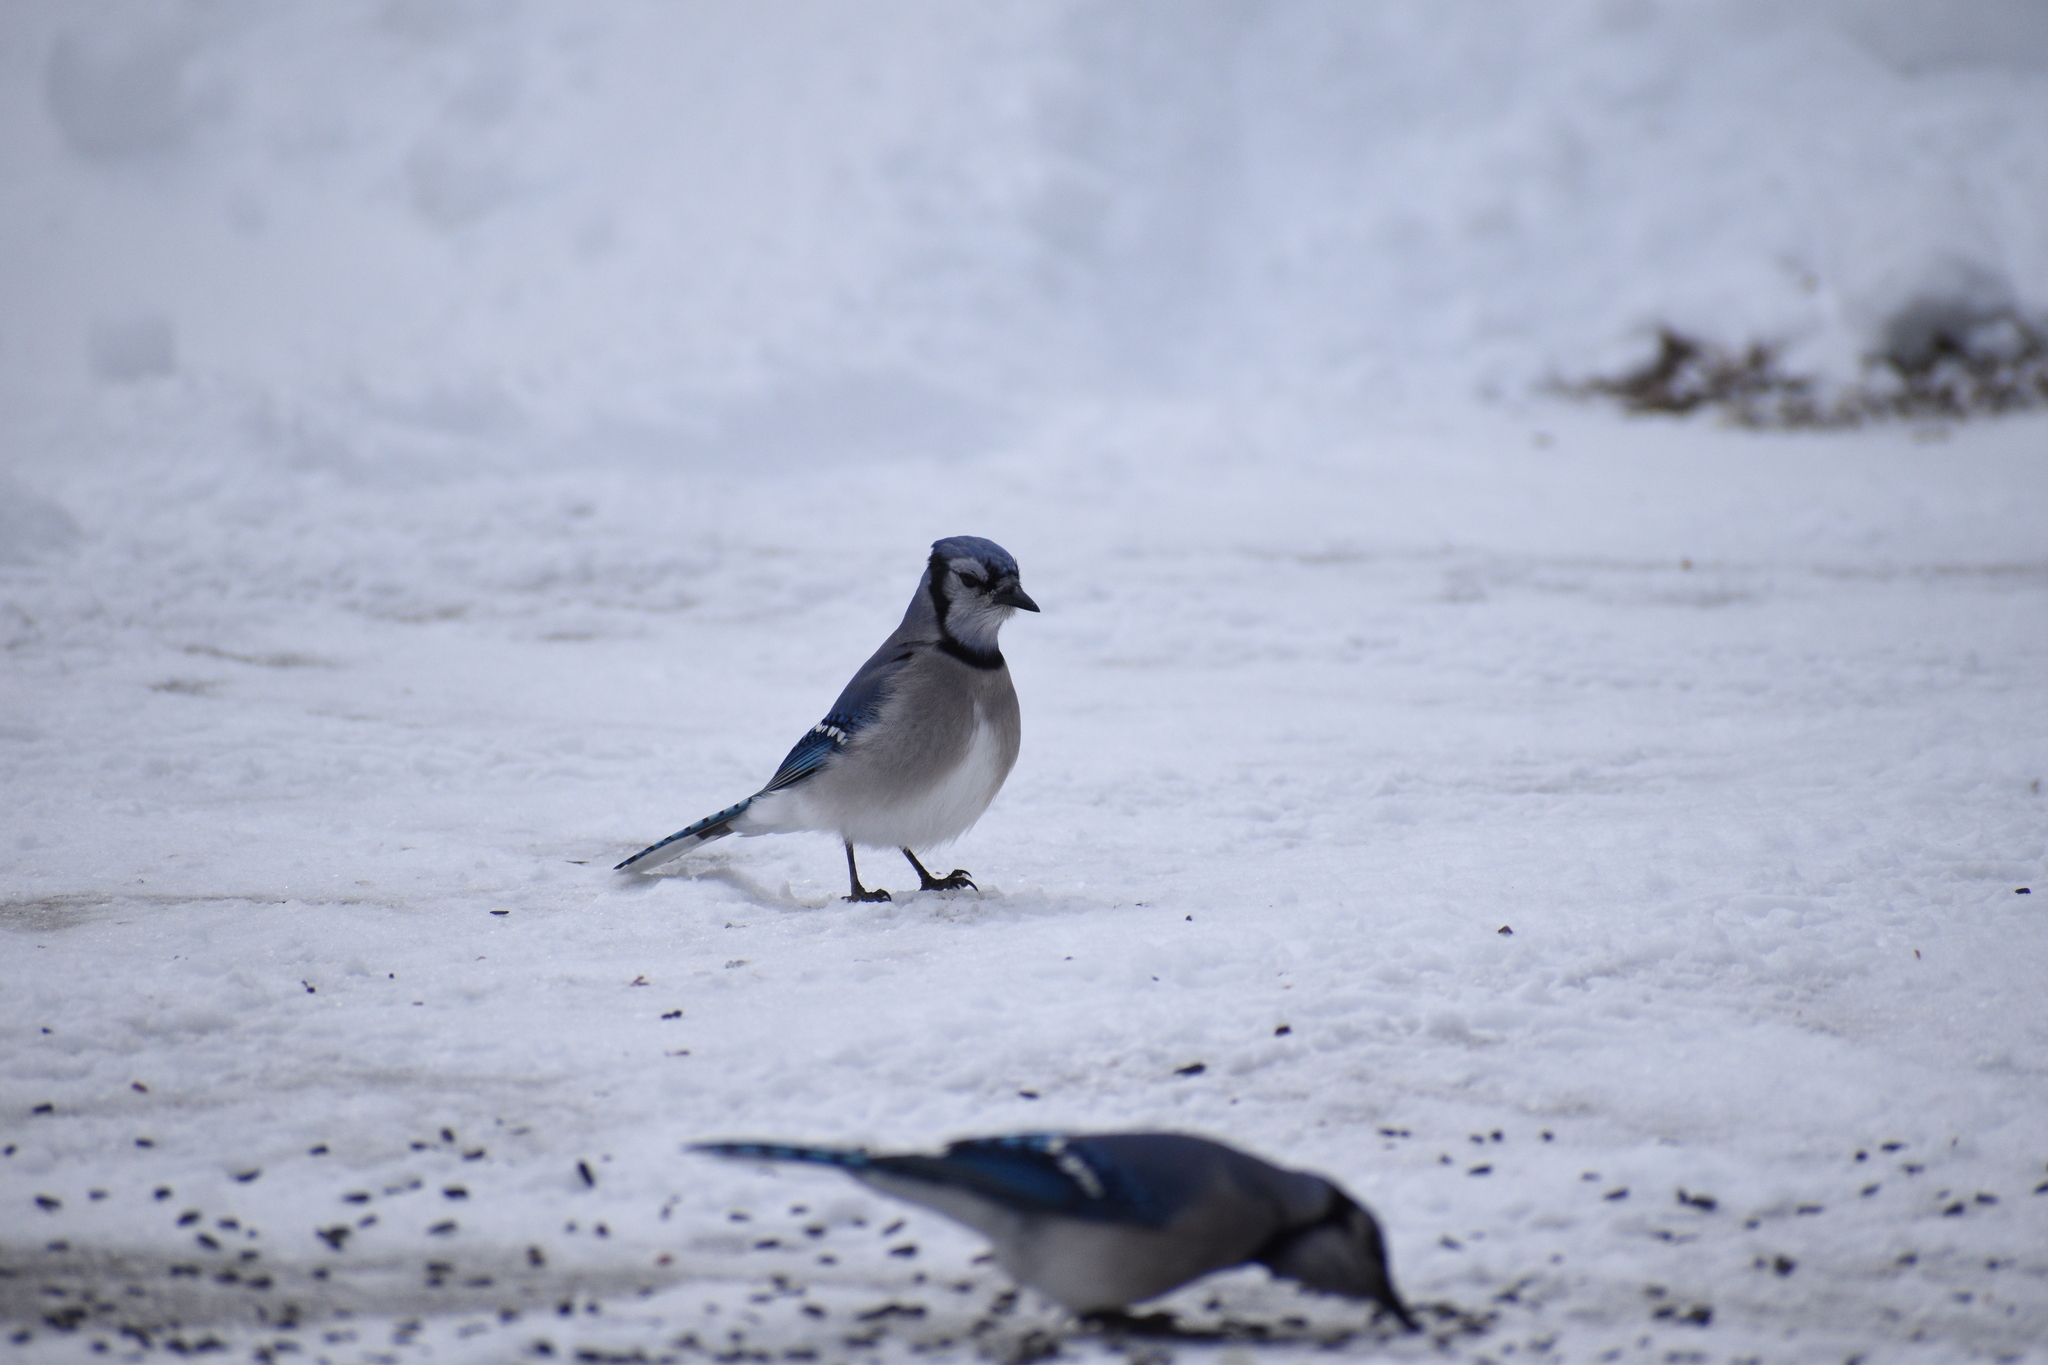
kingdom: Animalia
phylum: Chordata
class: Aves
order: Passeriformes
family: Corvidae
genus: Cyanocitta
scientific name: Cyanocitta cristata
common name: Blue jay
